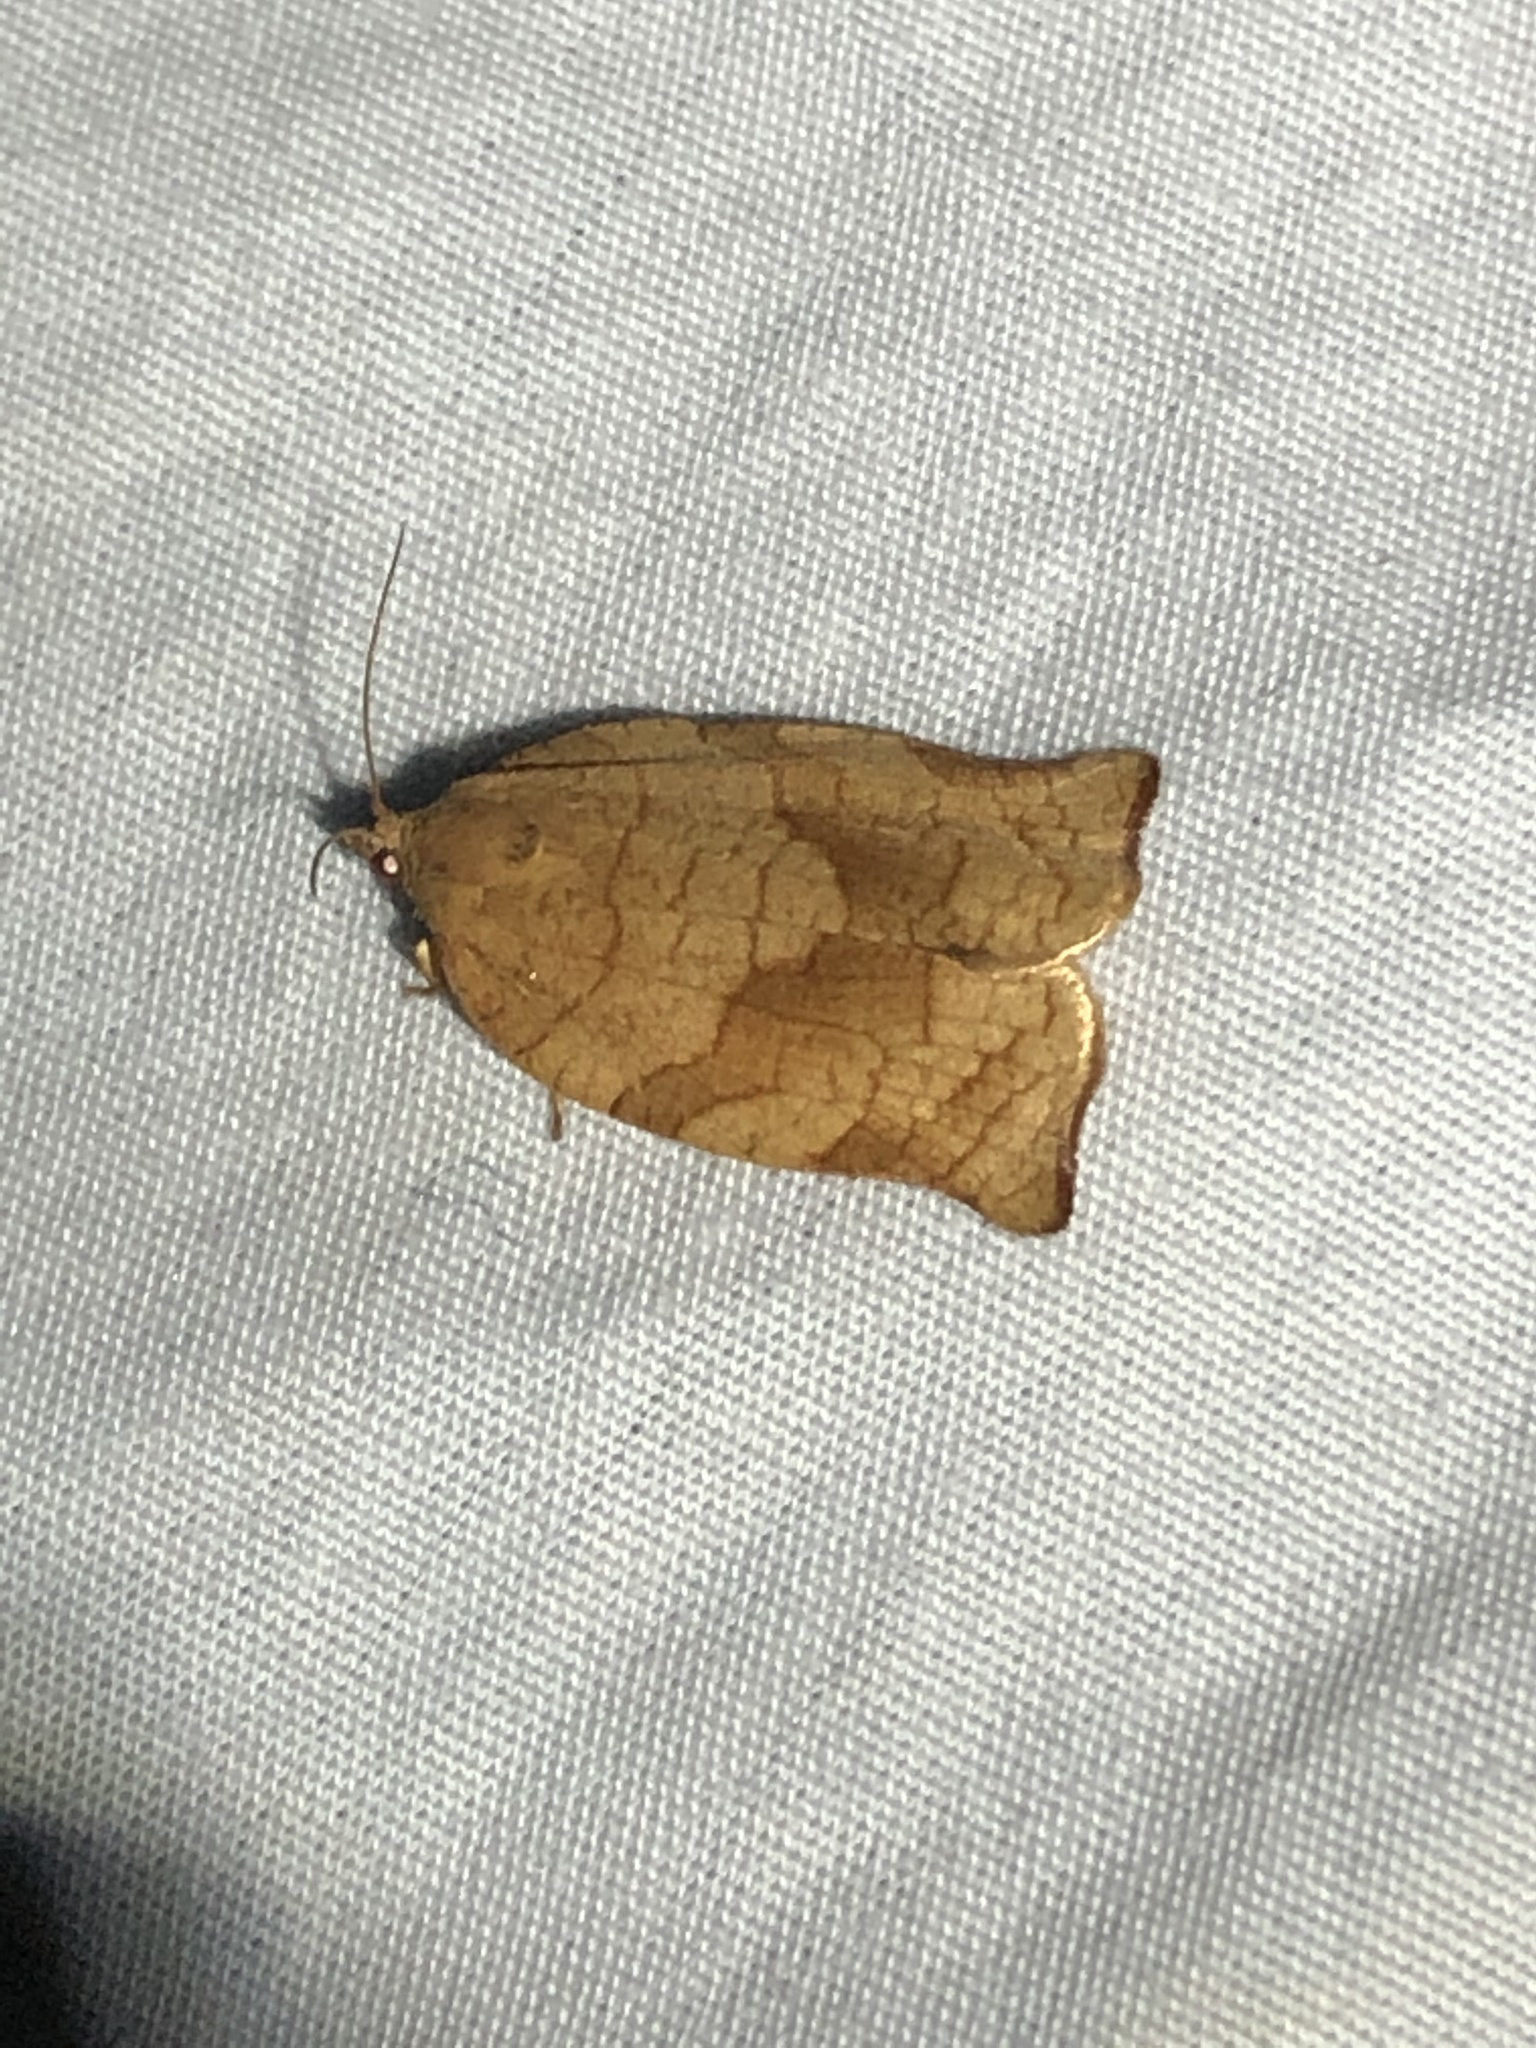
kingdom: Animalia
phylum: Arthropoda
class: Insecta
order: Lepidoptera
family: Tortricidae
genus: Choristoneura
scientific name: Choristoneura rosaceana
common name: Oblique-banded leafroller moth
